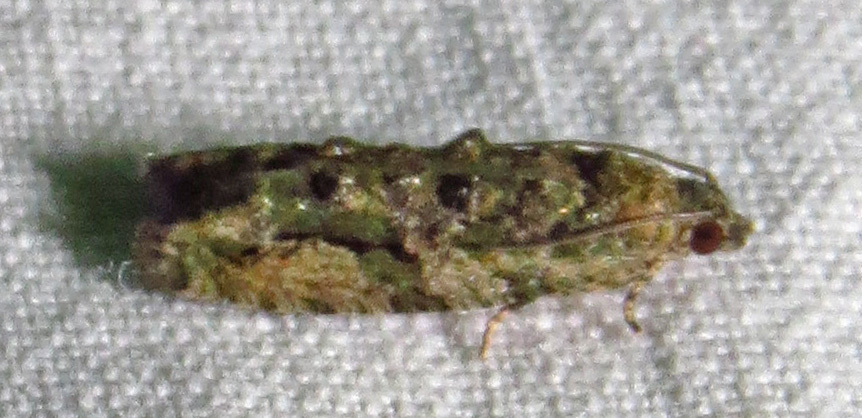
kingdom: Animalia
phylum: Arthropoda
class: Insecta
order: Lepidoptera
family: Tortricidae
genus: Proteoteras
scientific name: Proteoteras aesculana
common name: Maple twig borer moth
